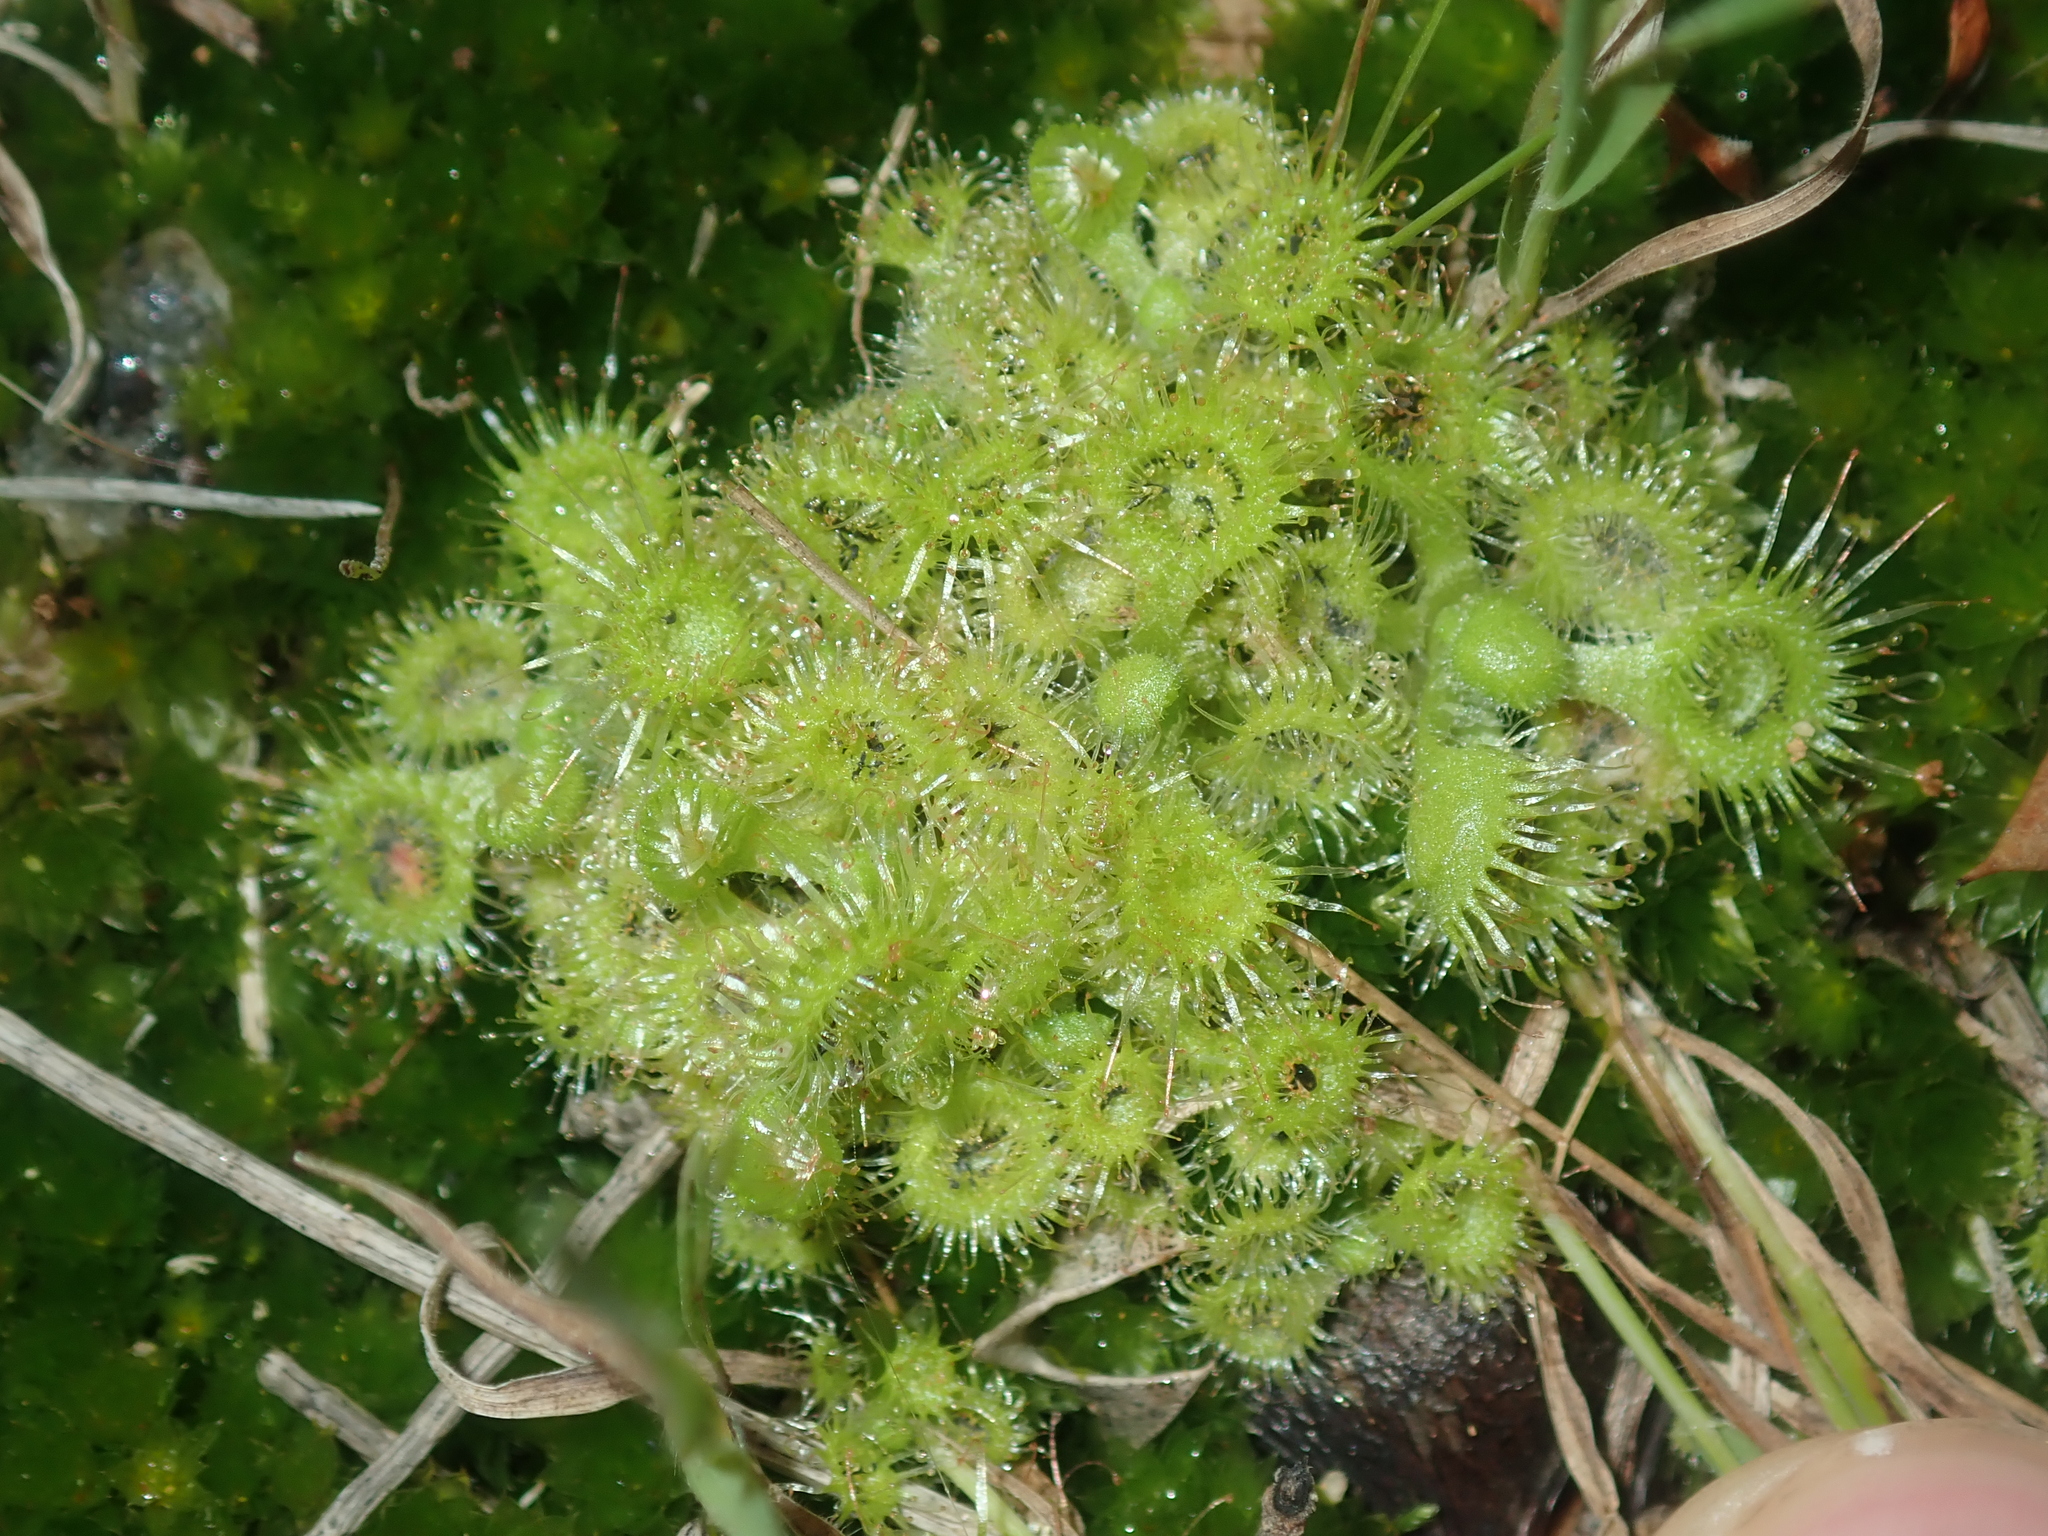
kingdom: Plantae
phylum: Tracheophyta
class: Magnoliopsida
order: Caryophyllales
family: Droseraceae
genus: Drosera
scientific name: Drosera glanduligera
